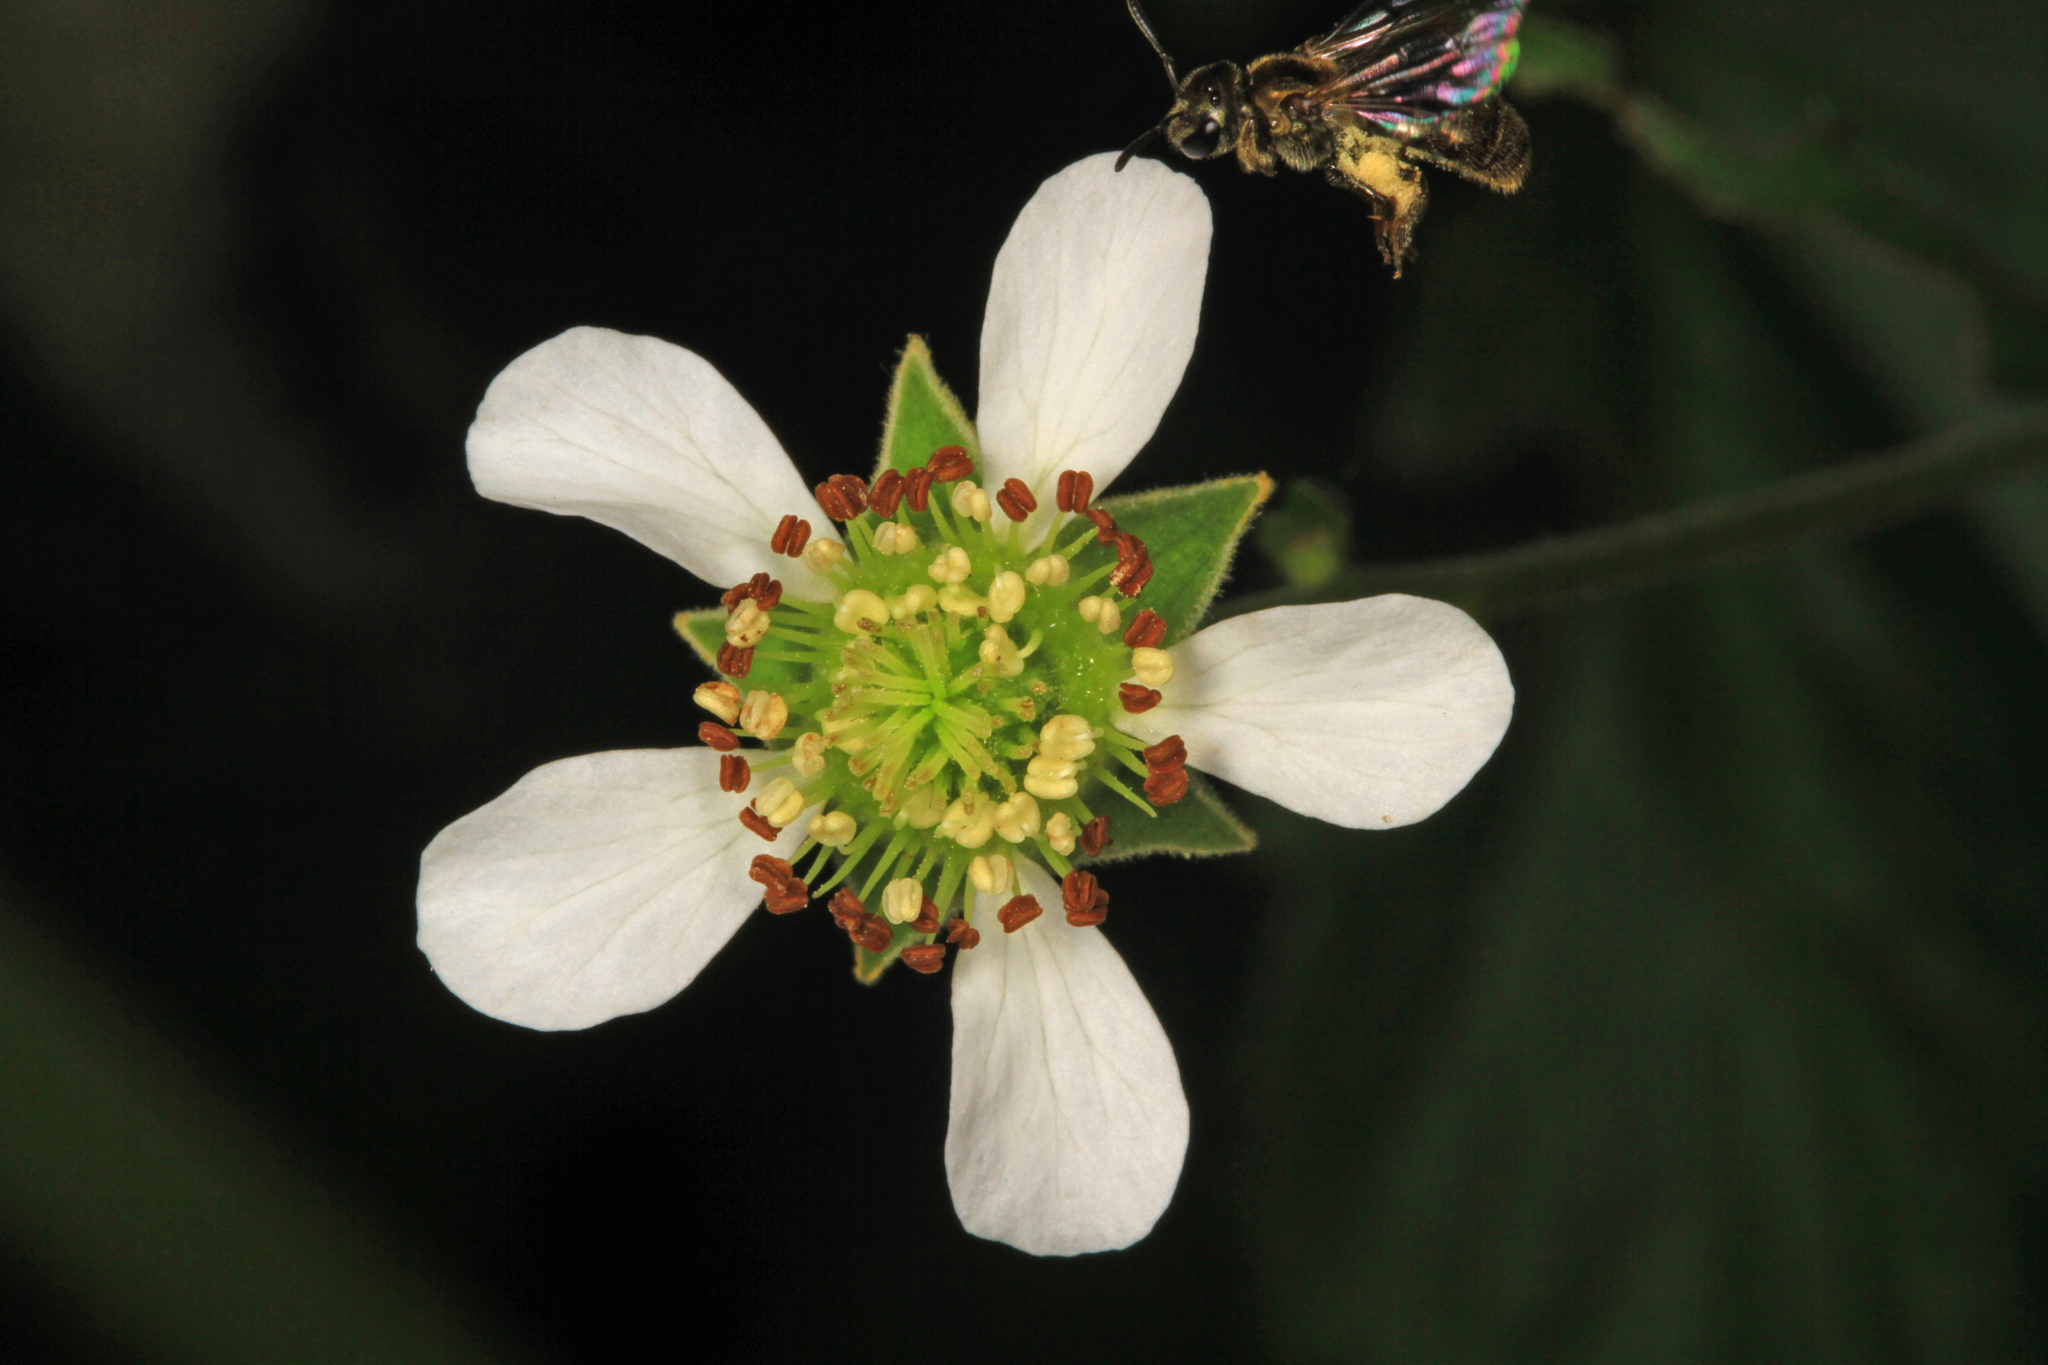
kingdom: Plantae
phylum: Tracheophyta
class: Magnoliopsida
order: Rosales
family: Rosaceae
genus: Geum
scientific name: Geum canadense
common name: White avens
